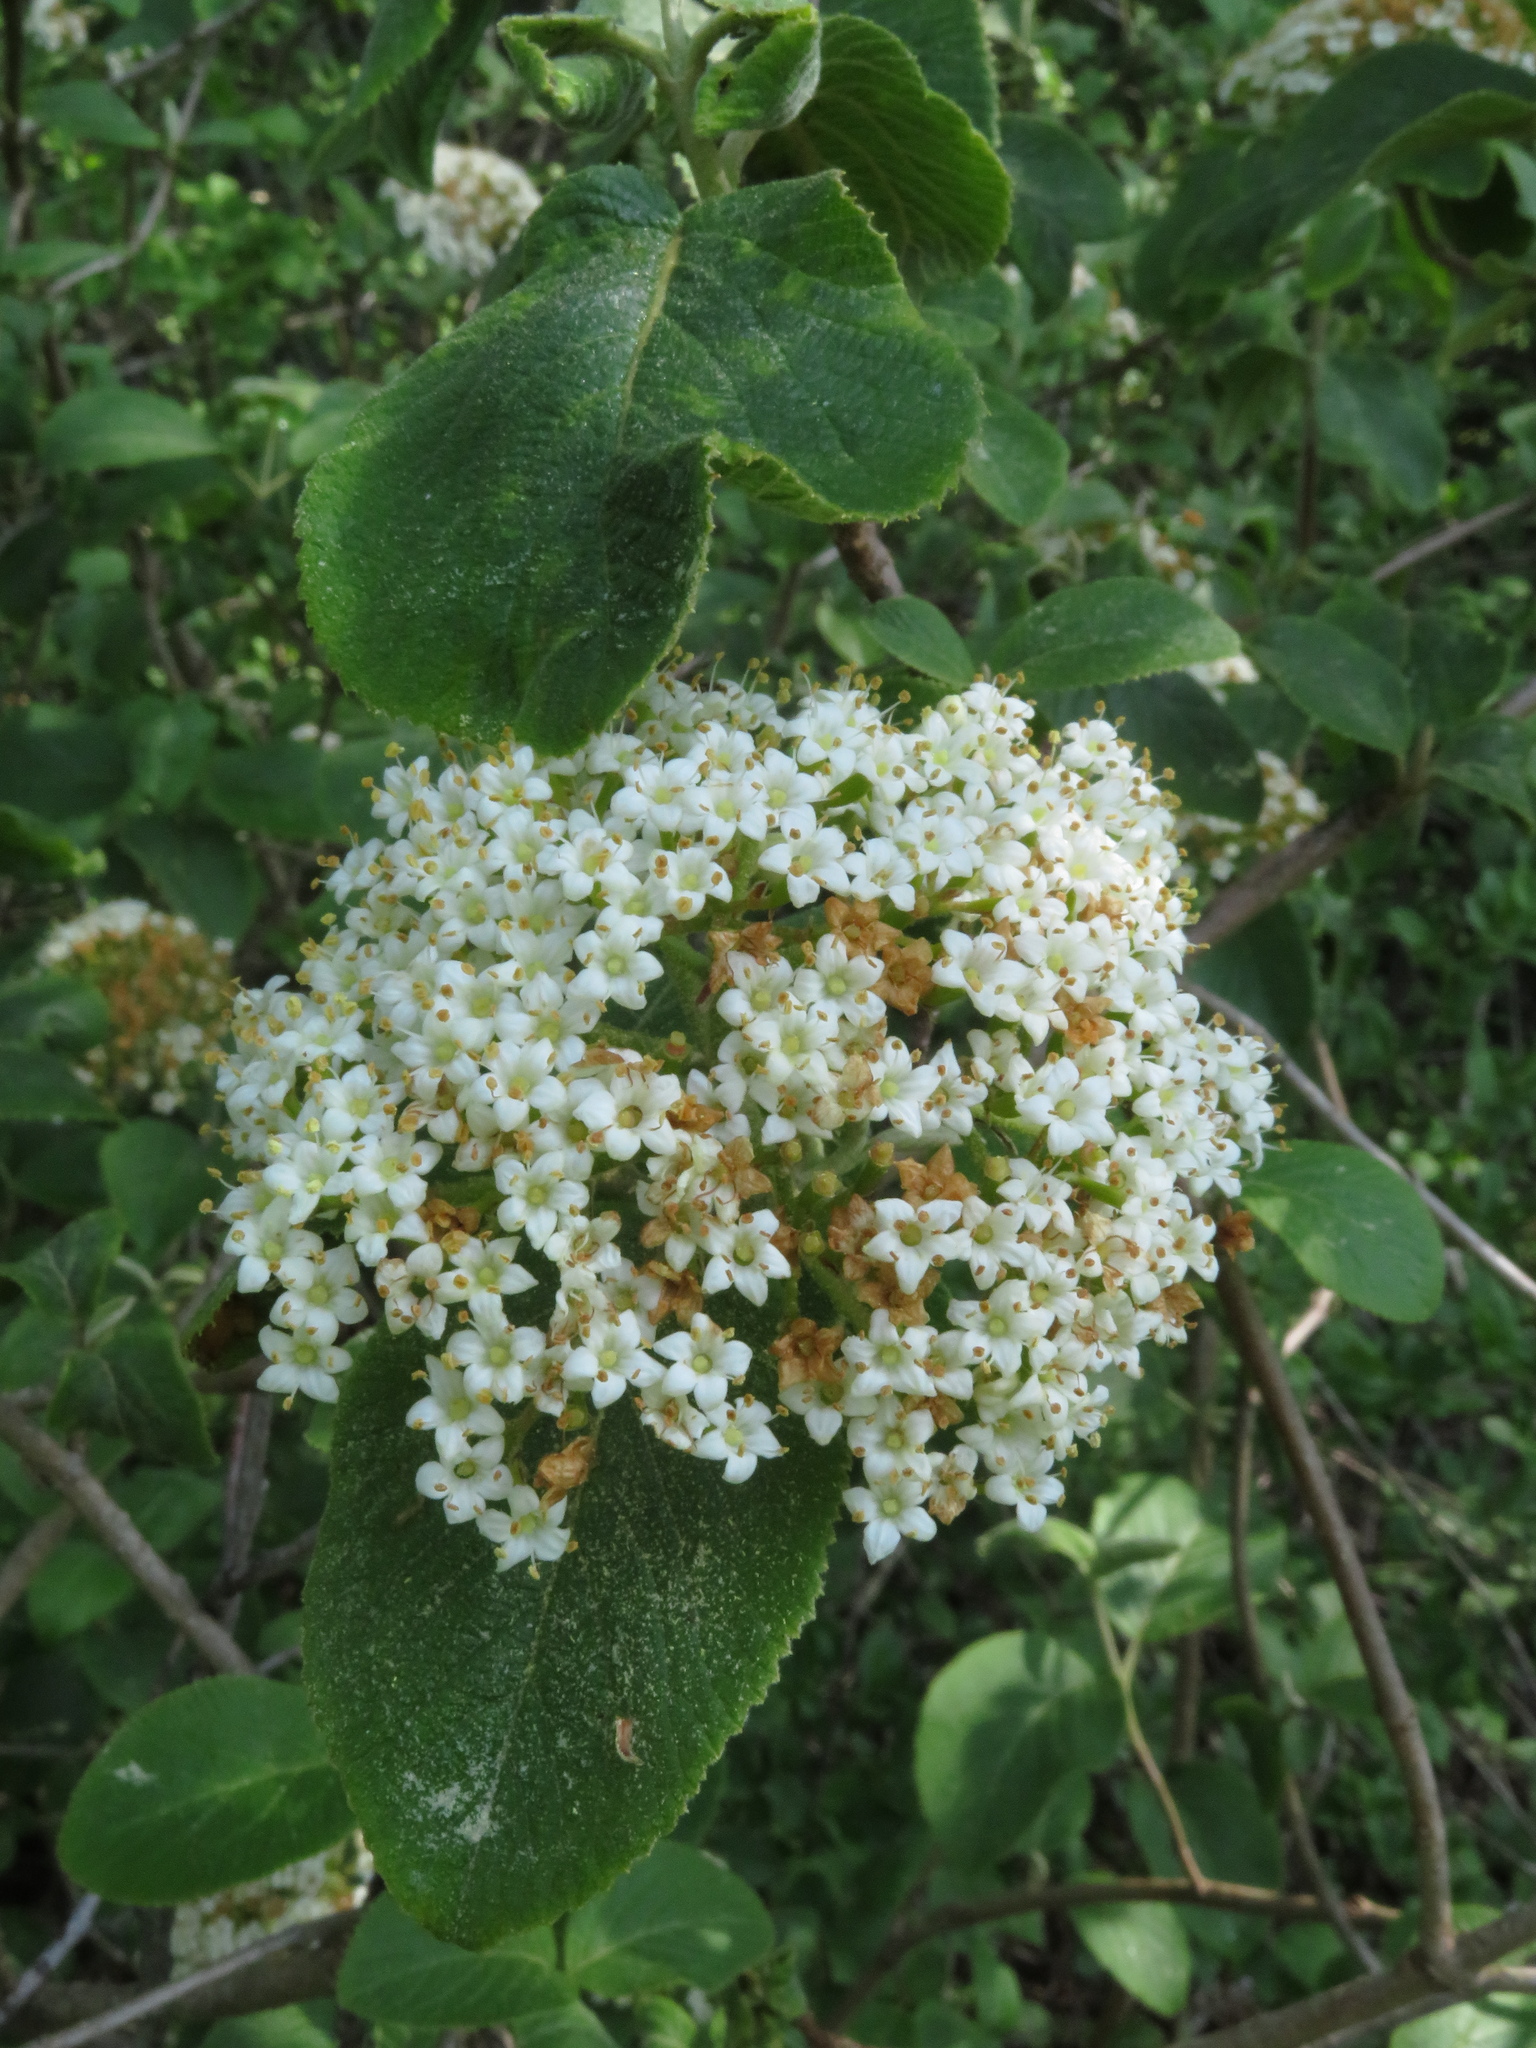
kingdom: Plantae
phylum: Tracheophyta
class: Magnoliopsida
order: Dipsacales
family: Viburnaceae
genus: Viburnum
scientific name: Viburnum lantana
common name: Wayfaring tree
